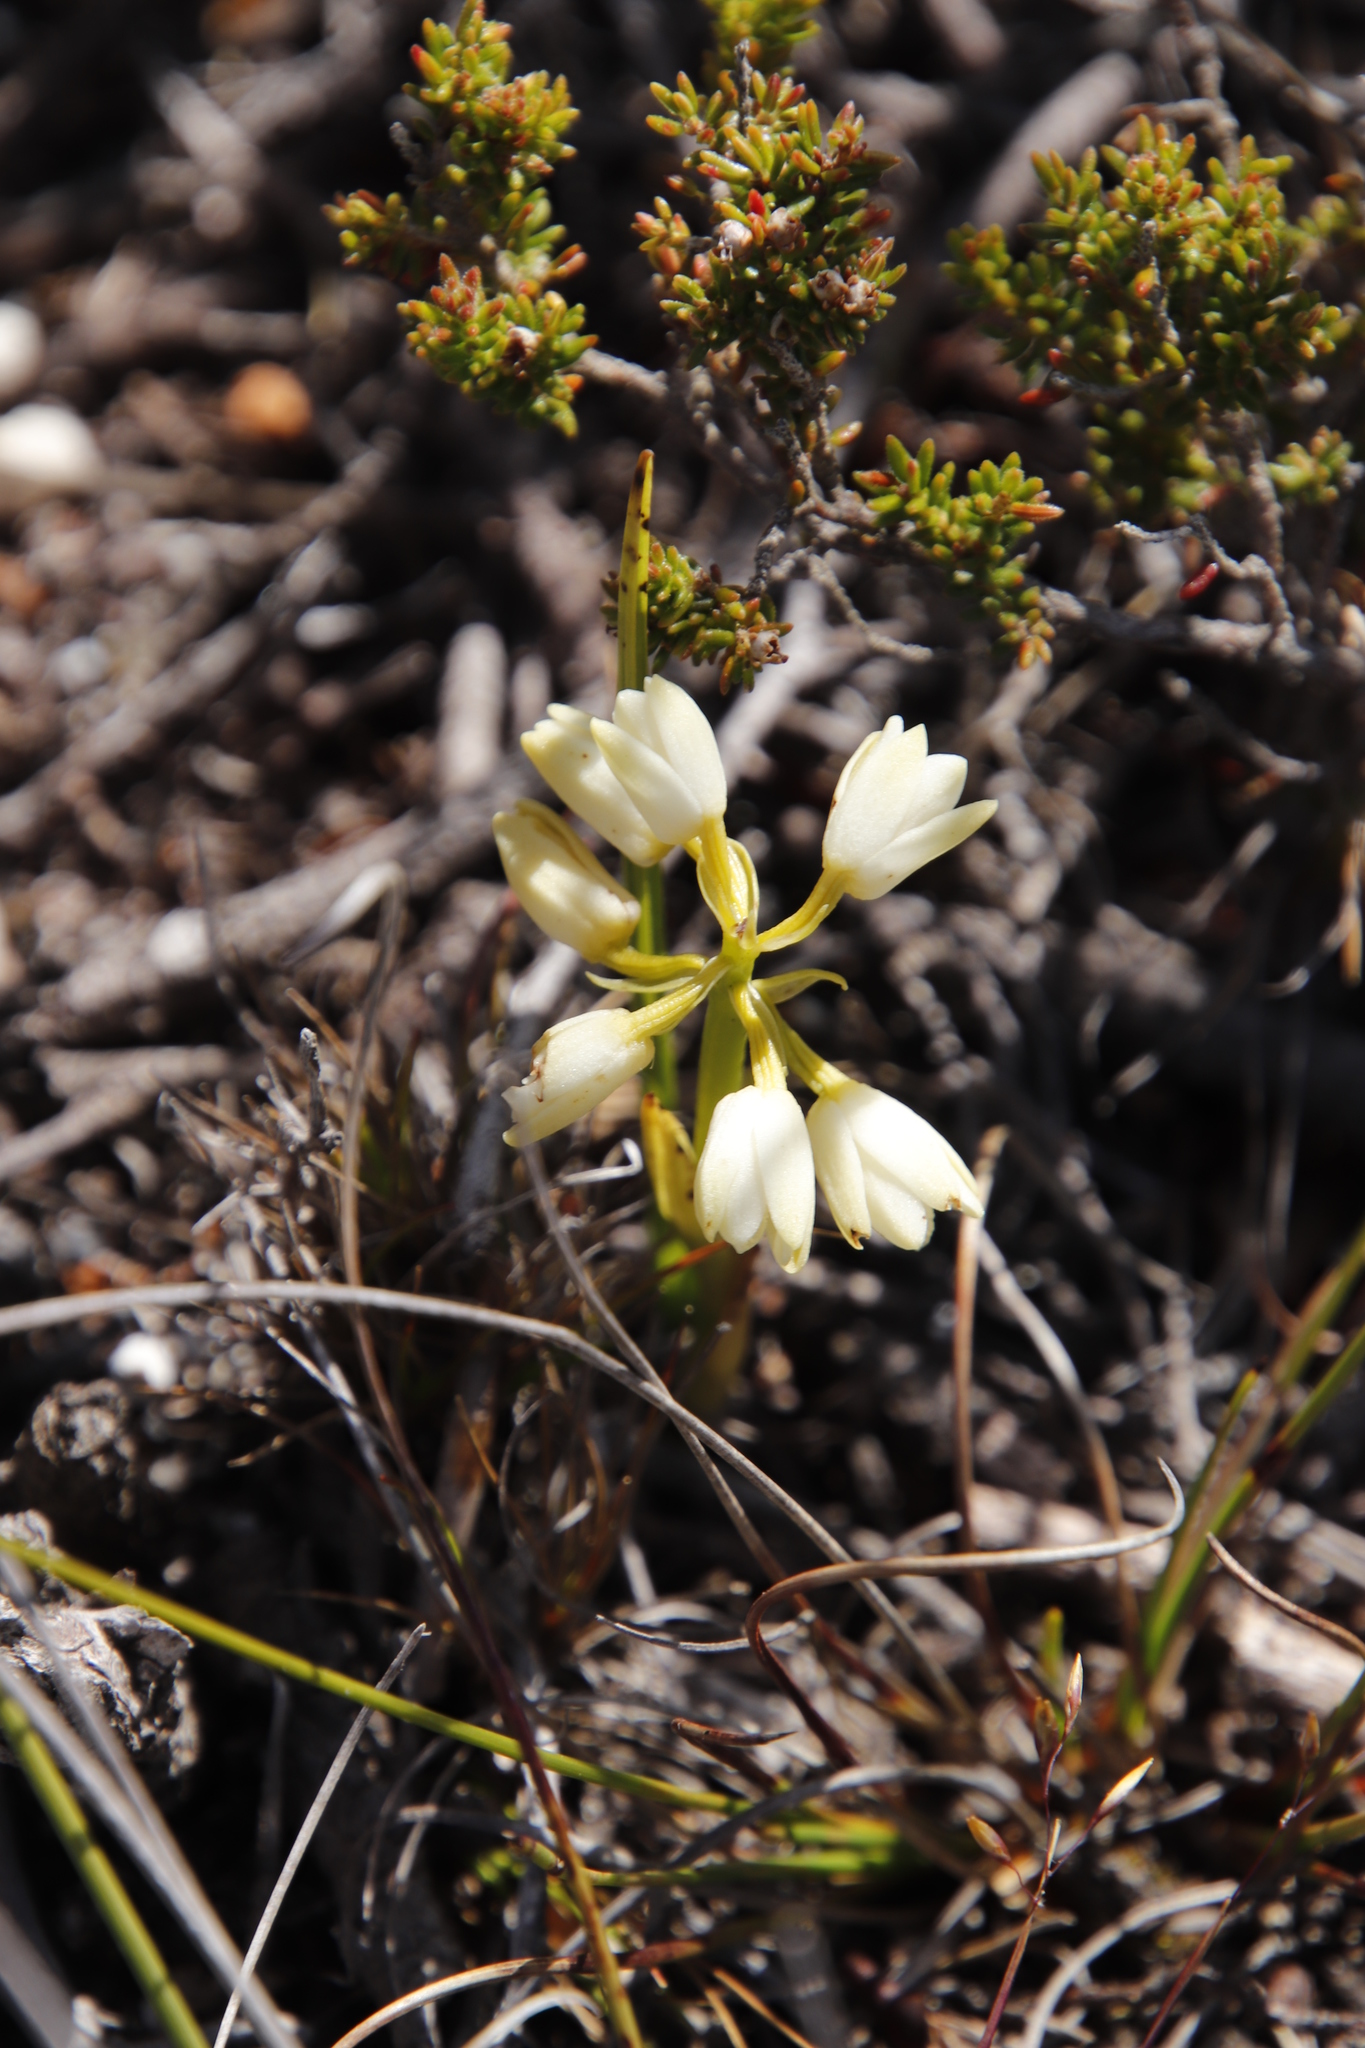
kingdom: Plantae
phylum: Tracheophyta
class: Liliopsida
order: Asparagales
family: Orchidaceae
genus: Eulophia
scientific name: Eulophia aculeata
